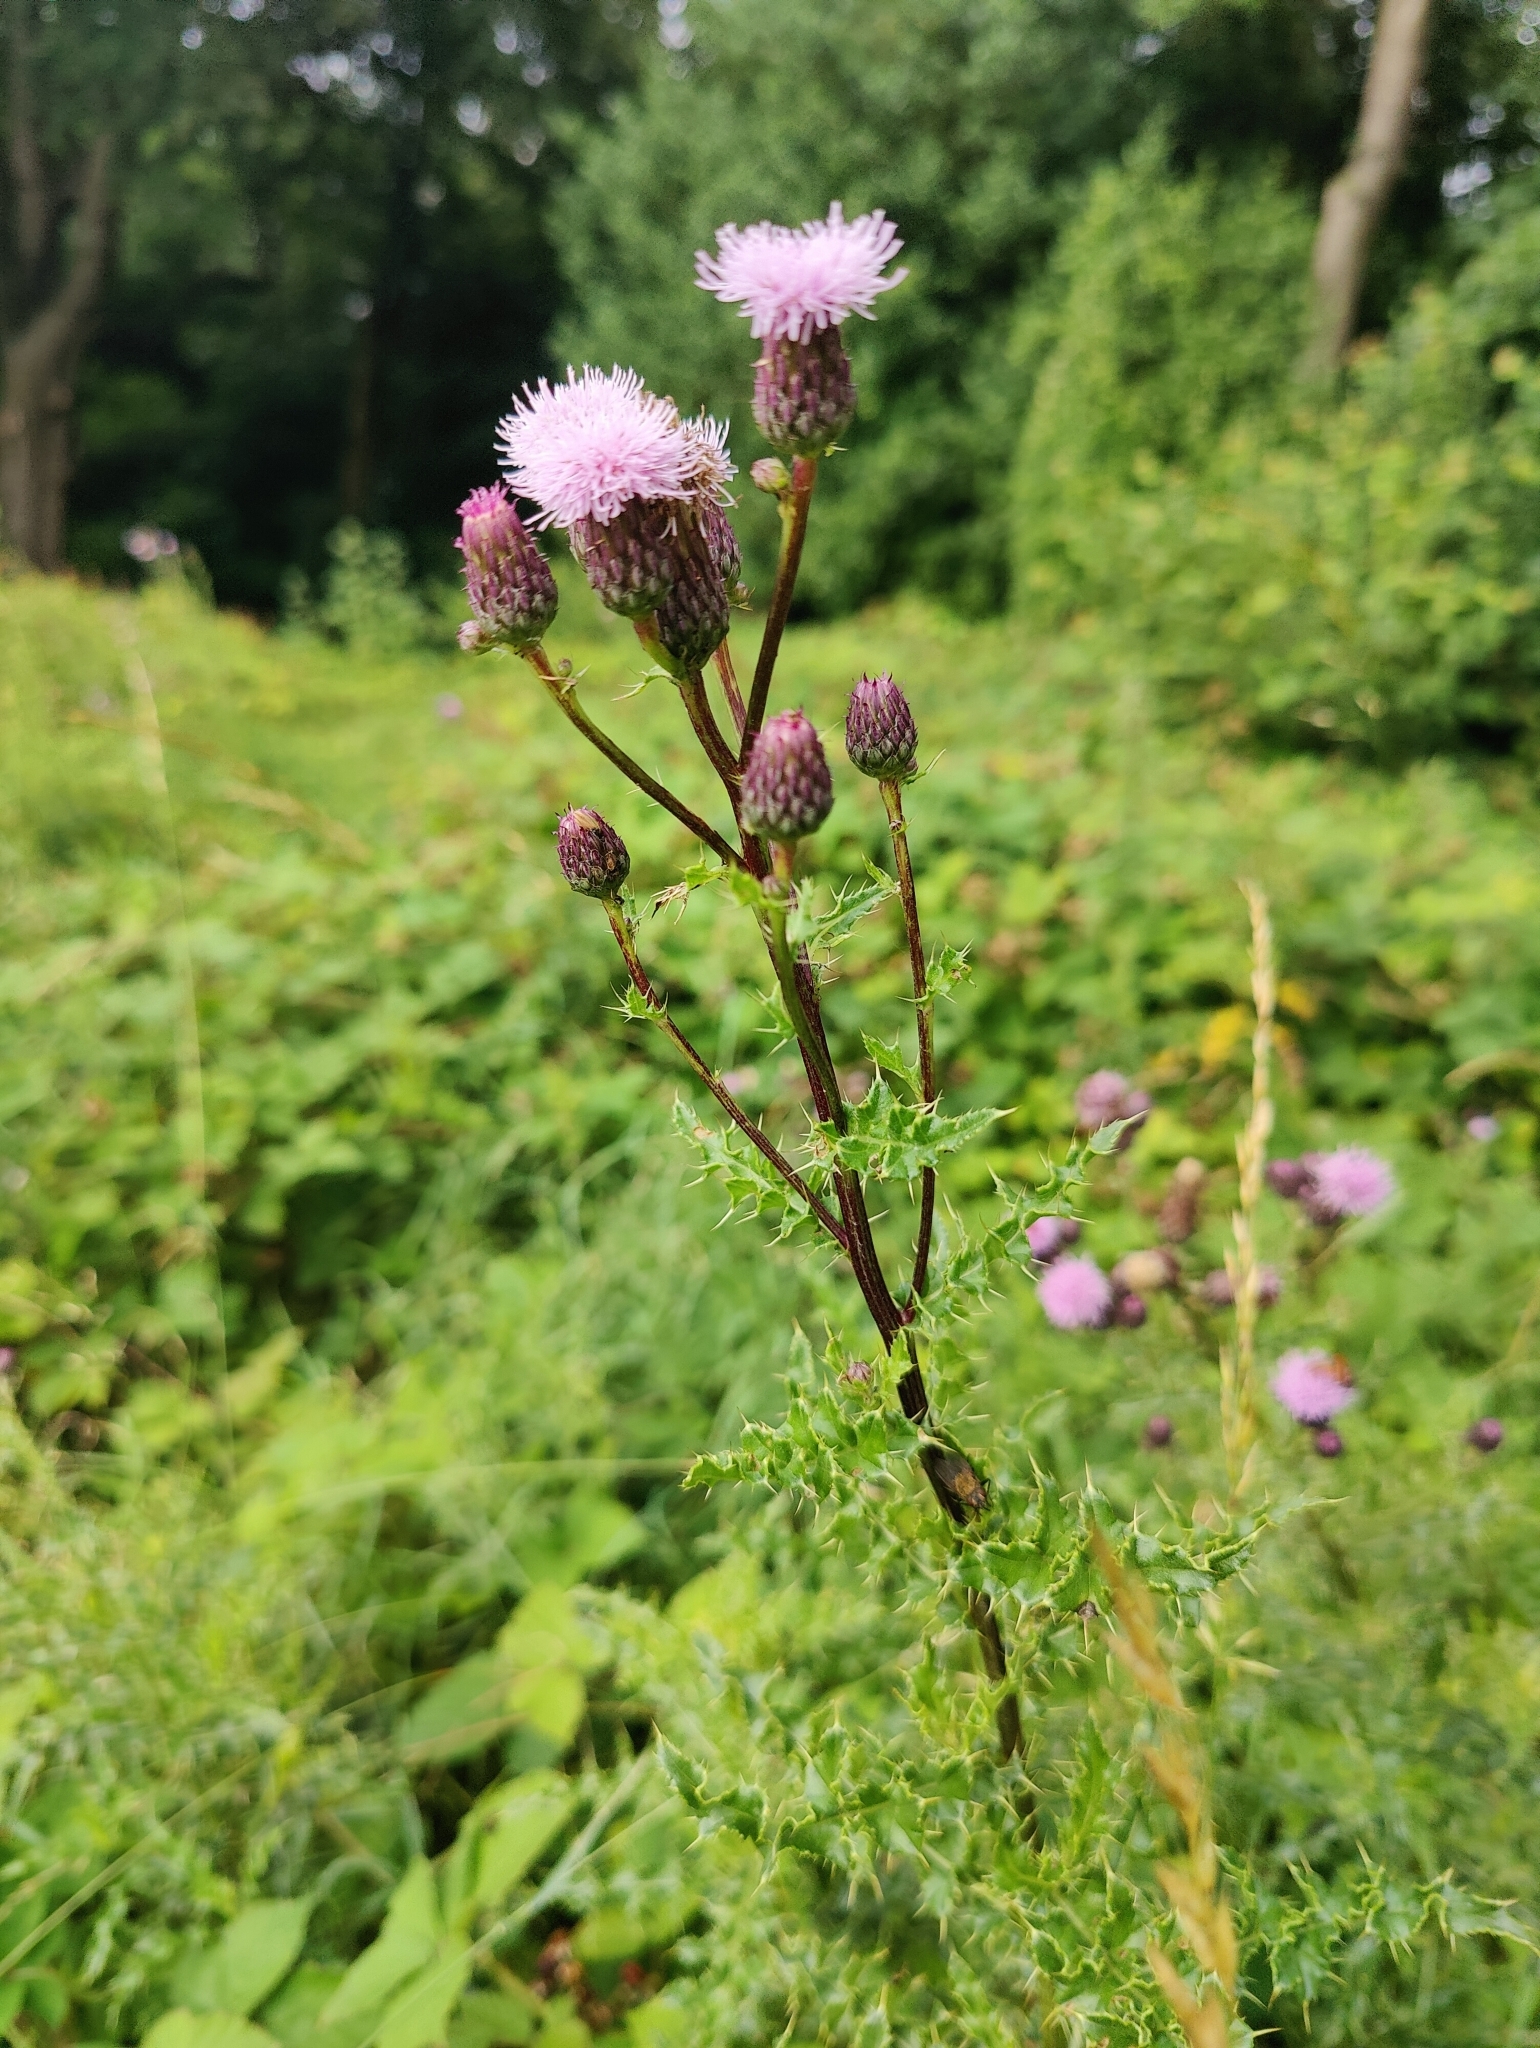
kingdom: Plantae
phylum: Tracheophyta
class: Magnoliopsida
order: Asterales
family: Asteraceae
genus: Cirsium
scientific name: Cirsium arvense
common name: Creeping thistle
